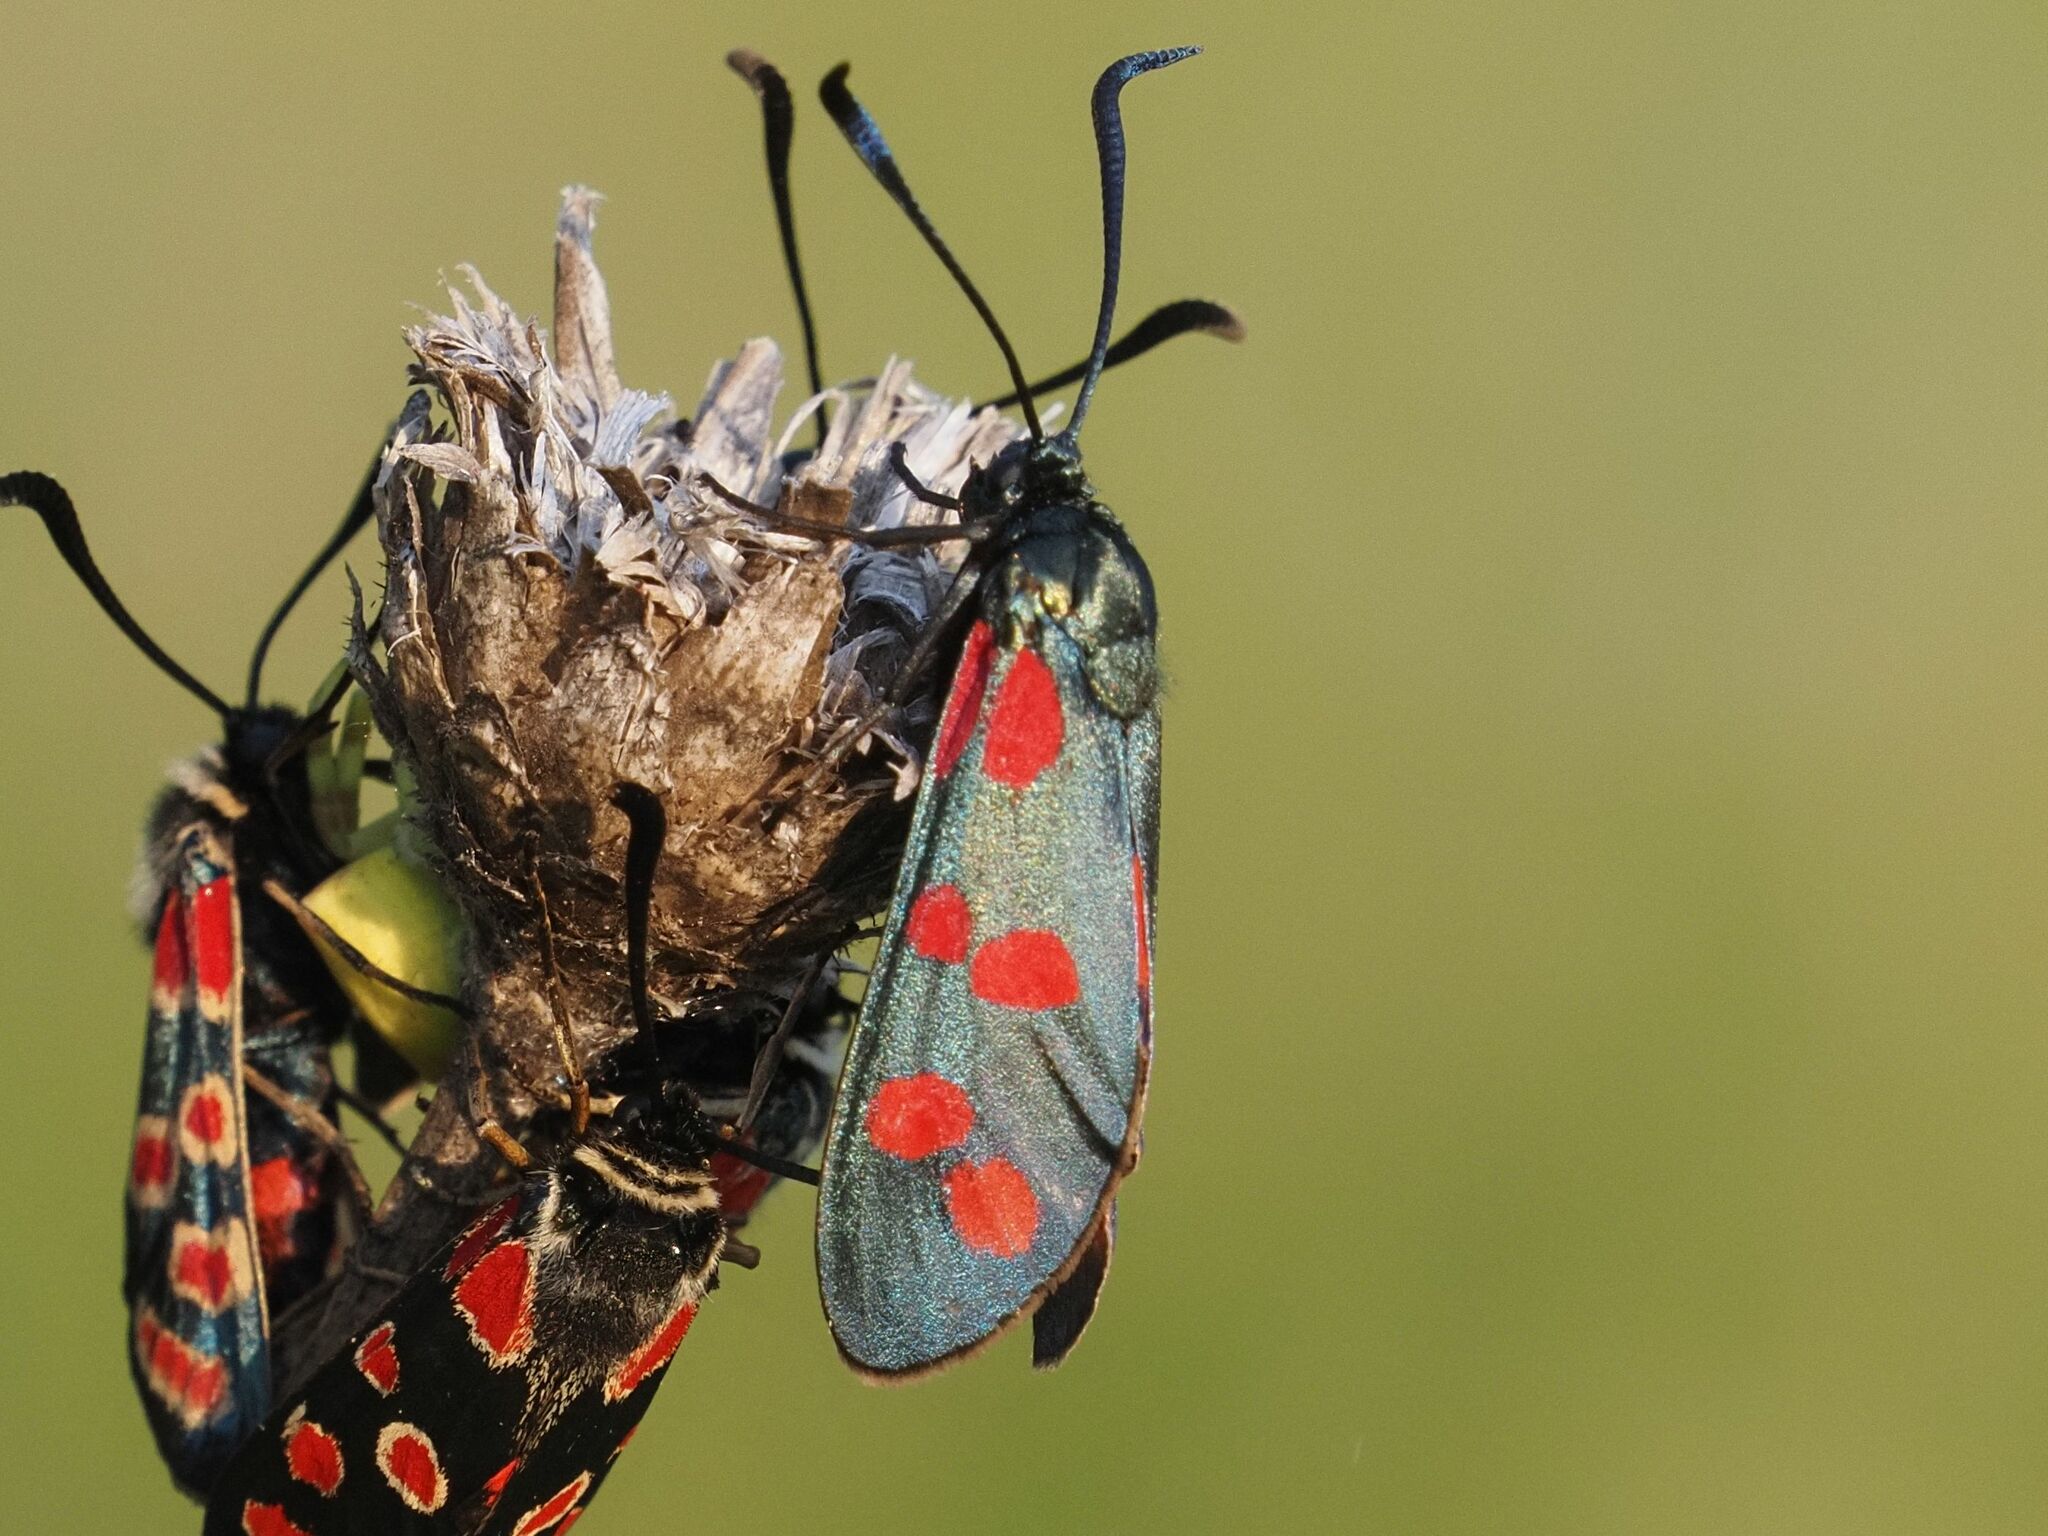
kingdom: Animalia
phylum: Arthropoda
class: Insecta
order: Lepidoptera
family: Zygaenidae
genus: Zygaena
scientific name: Zygaena filipendulae
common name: Six-spot burnet
